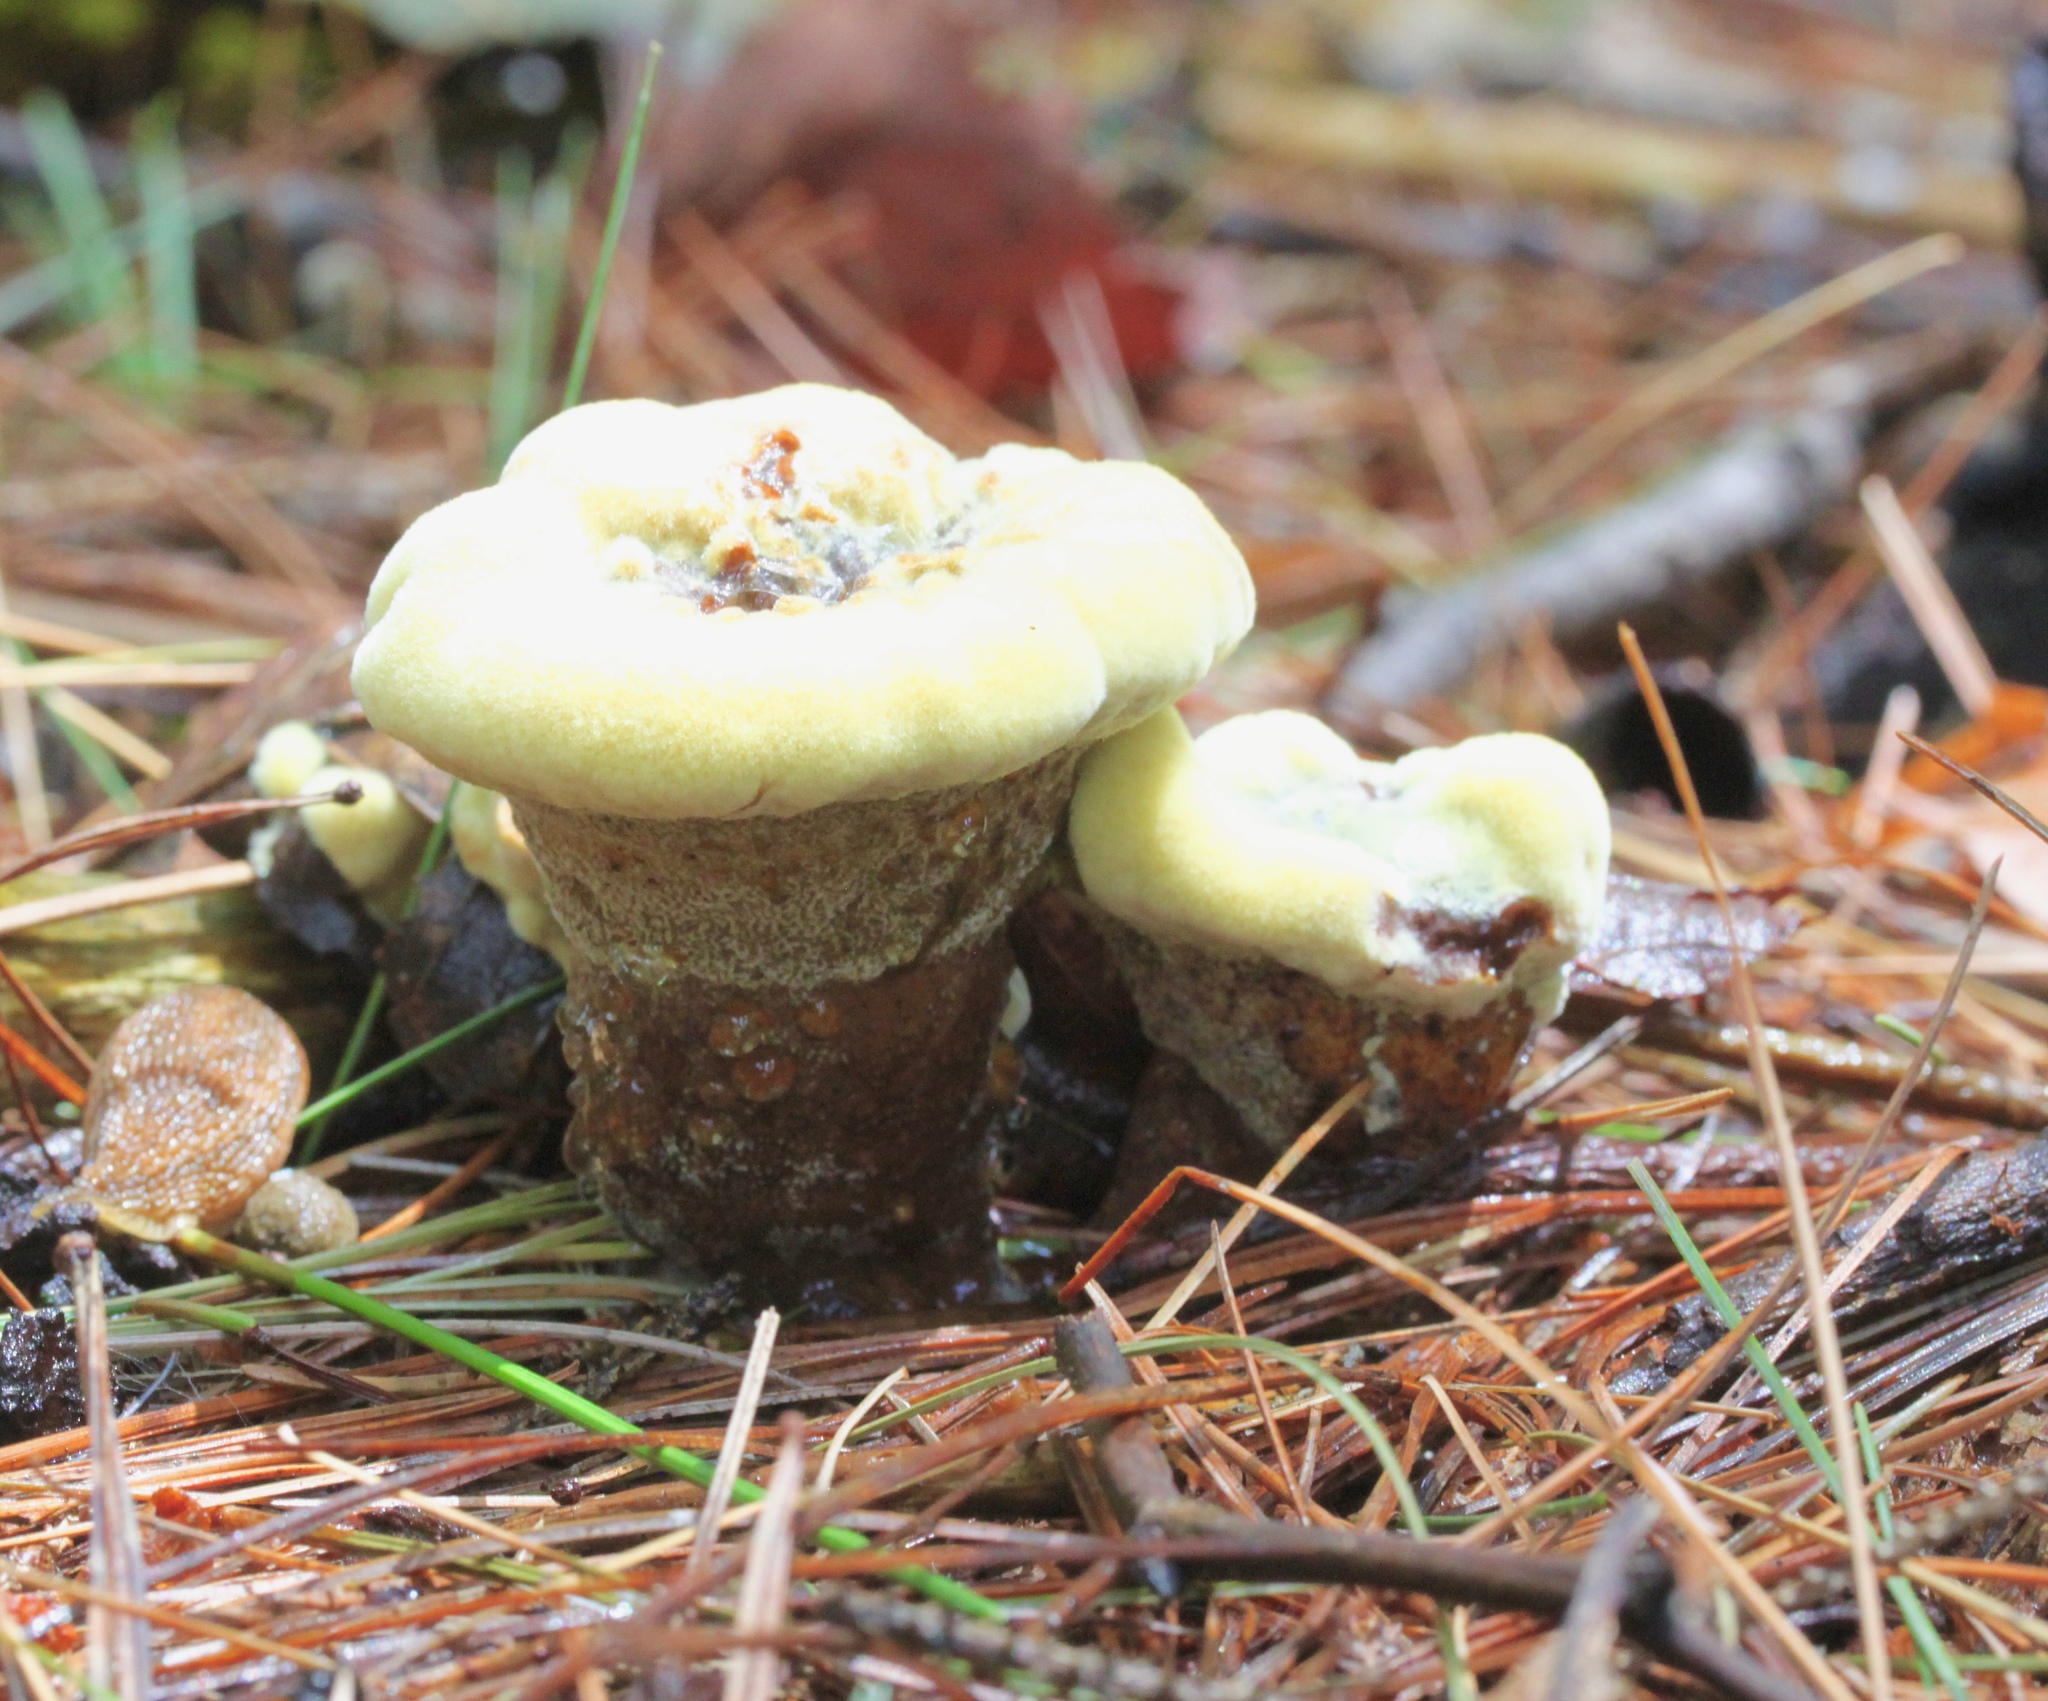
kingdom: Fungi
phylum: Basidiomycota
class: Agaricomycetes
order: Polyporales
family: Laetiporaceae
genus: Phaeolus
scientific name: Phaeolus schweinitzii
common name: Dyer's mazegill
